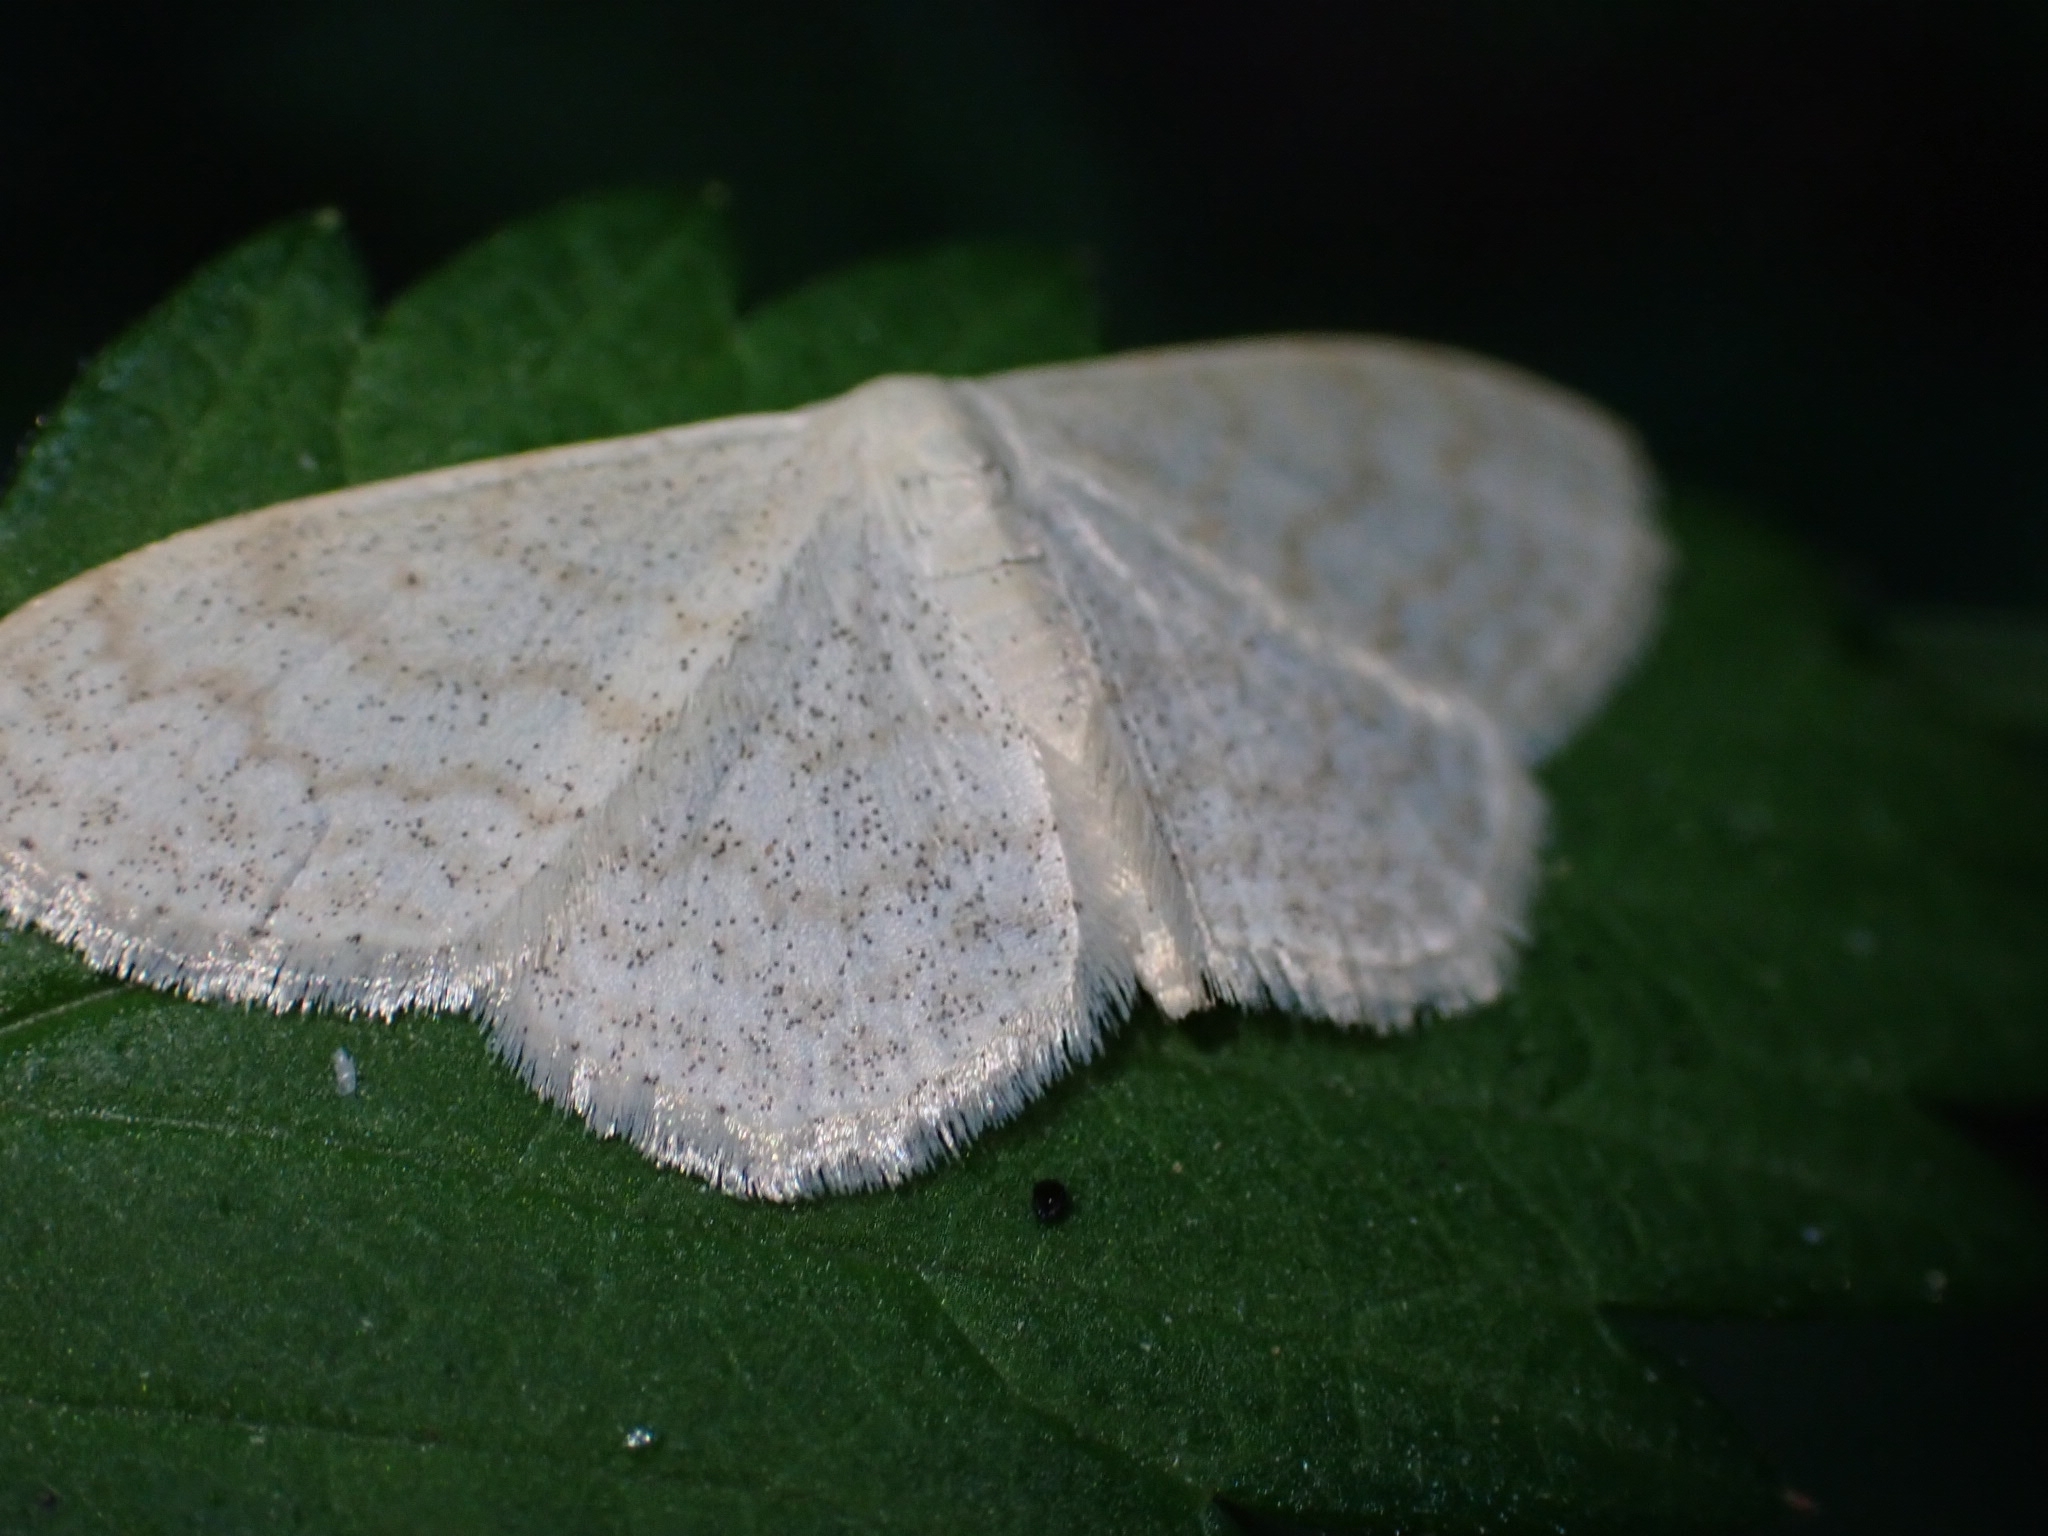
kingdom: Animalia
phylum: Arthropoda
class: Insecta
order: Lepidoptera
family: Geometridae
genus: Scopula
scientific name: Scopula floslactata
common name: Cream wave
